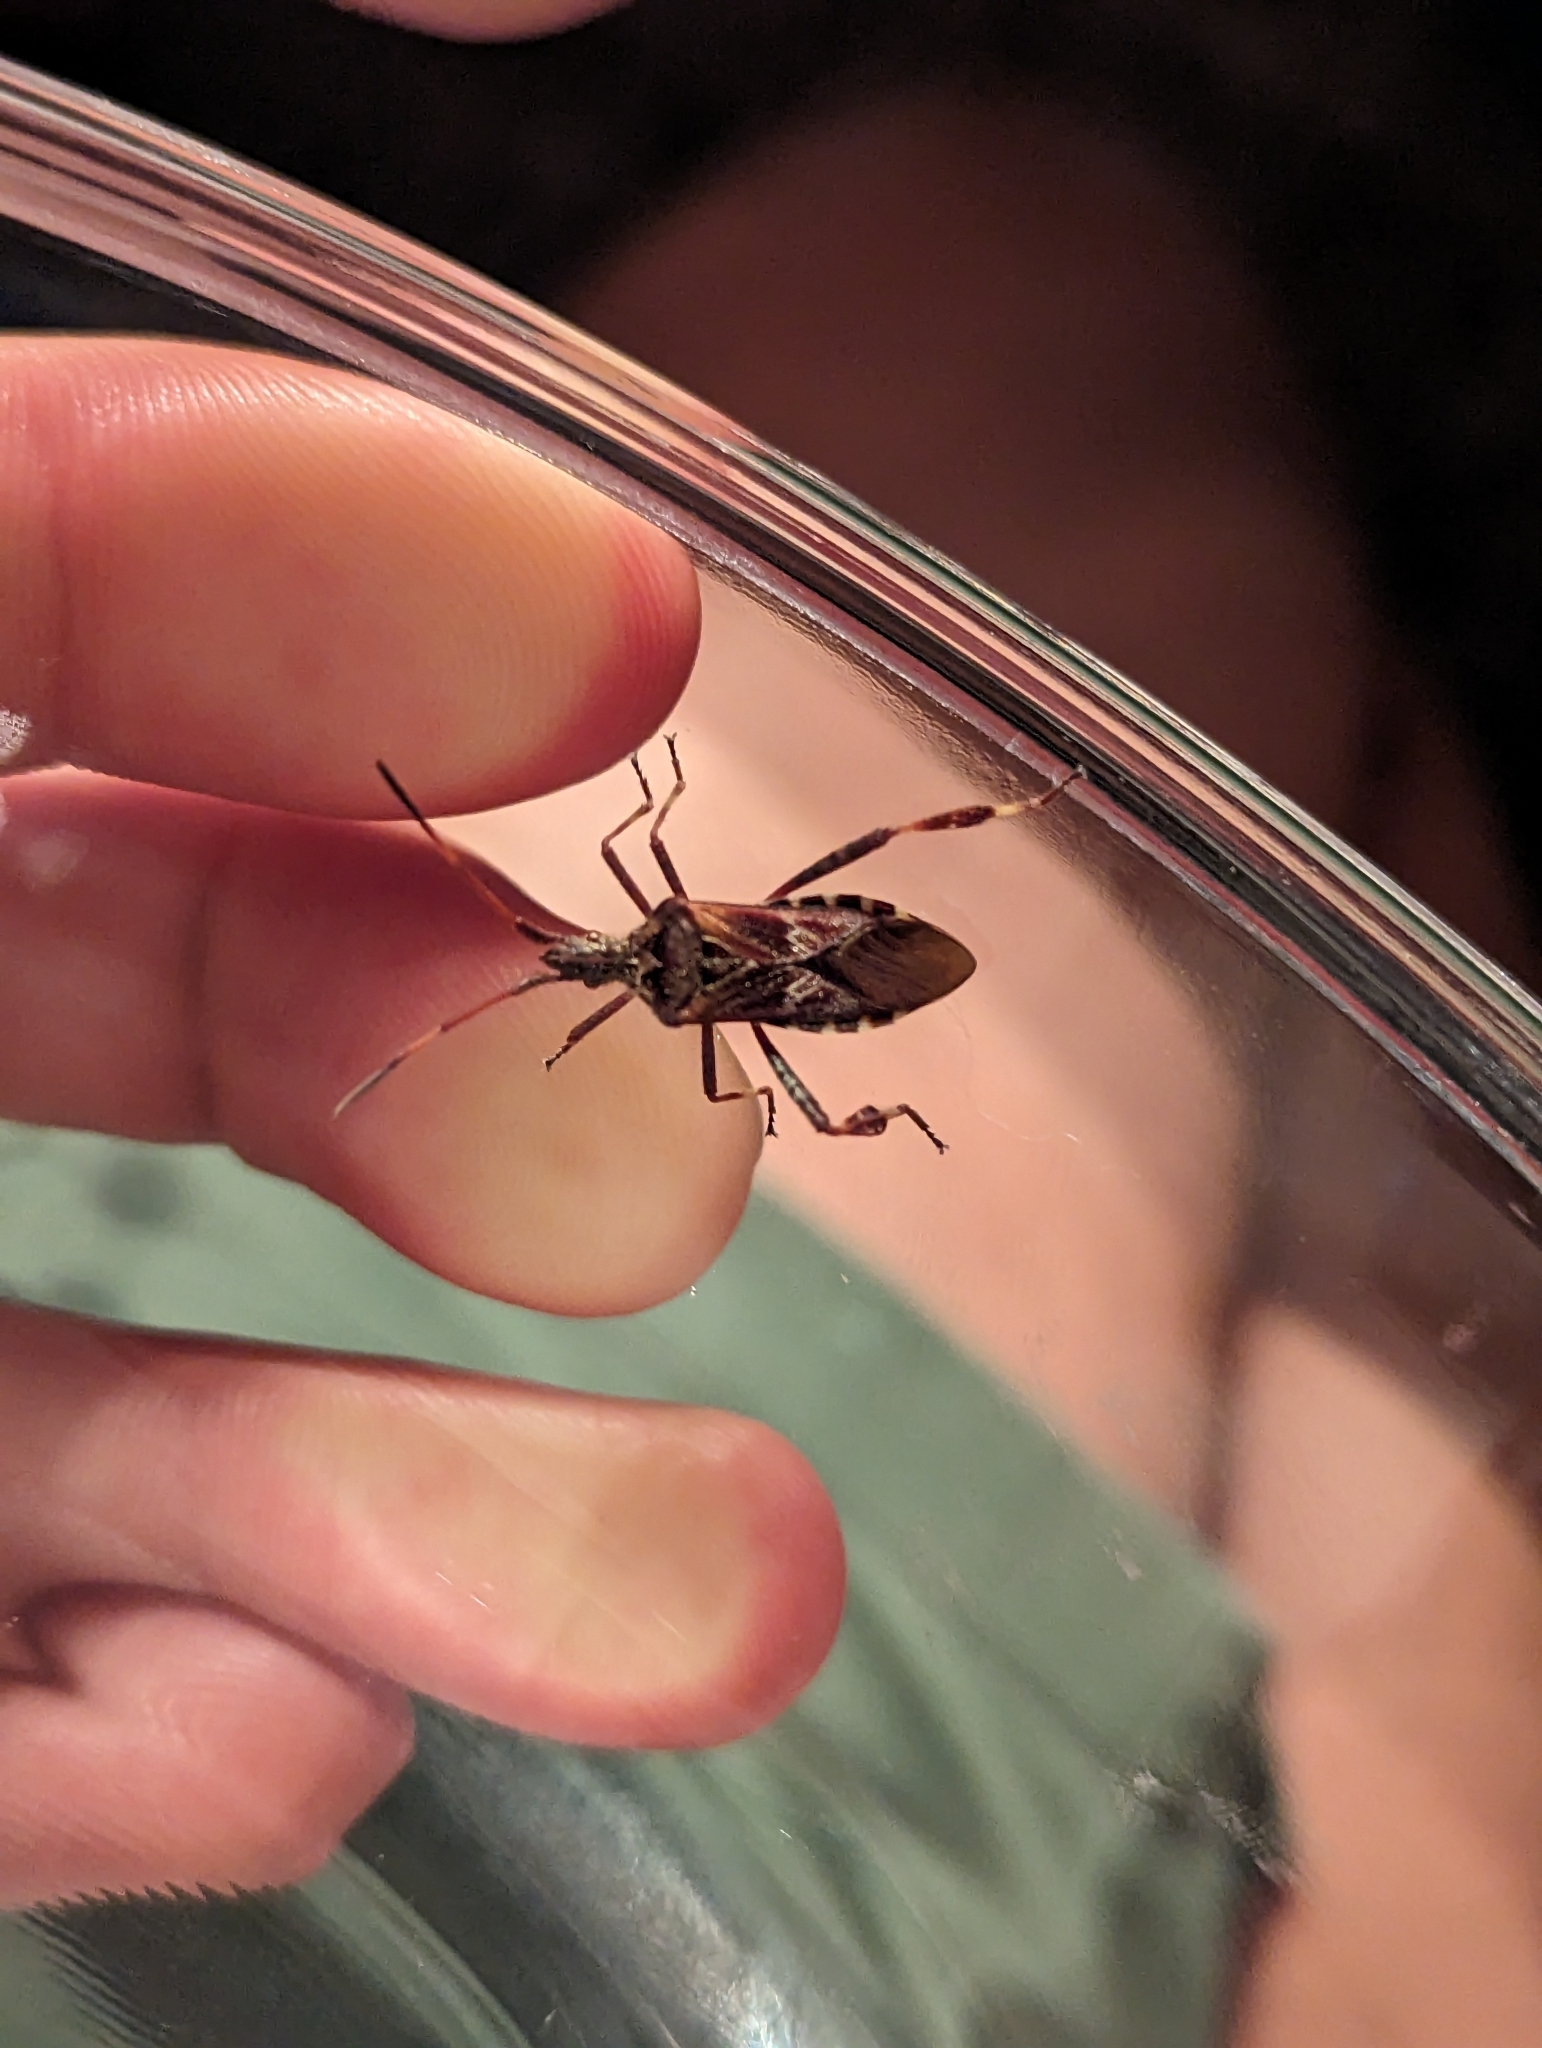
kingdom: Animalia
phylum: Arthropoda
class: Insecta
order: Hemiptera
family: Coreidae
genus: Leptoglossus
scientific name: Leptoglossus occidentalis
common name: Western conifer-seed bug
